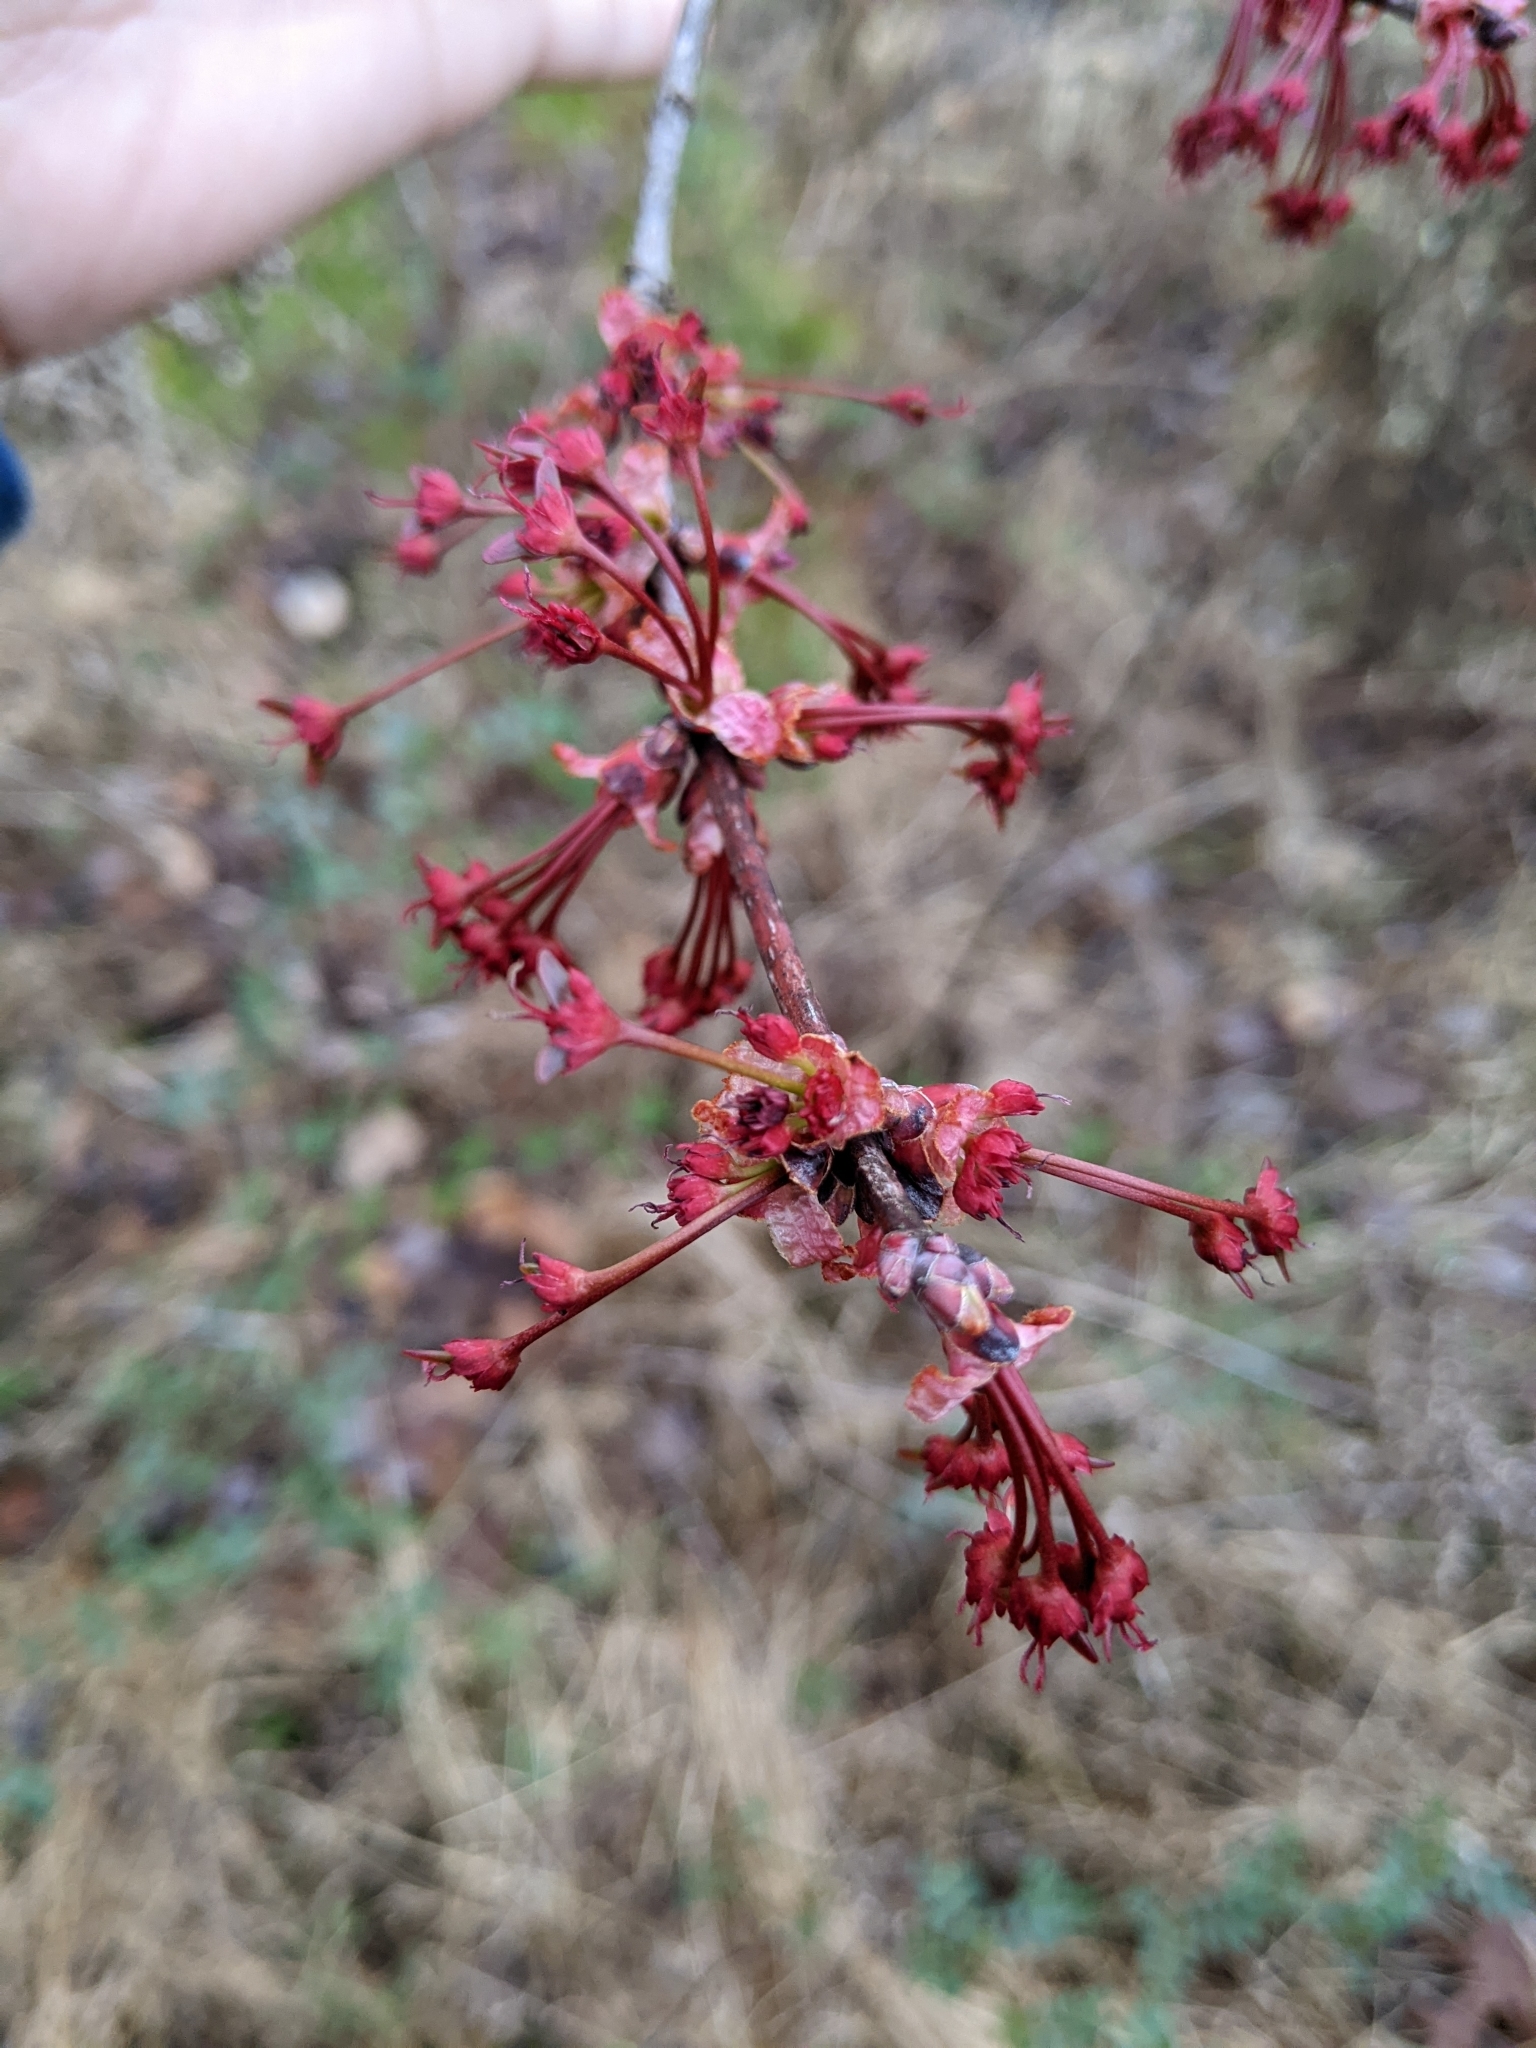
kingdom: Plantae
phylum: Tracheophyta
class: Magnoliopsida
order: Sapindales
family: Sapindaceae
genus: Acer
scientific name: Acer rubrum
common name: Red maple
